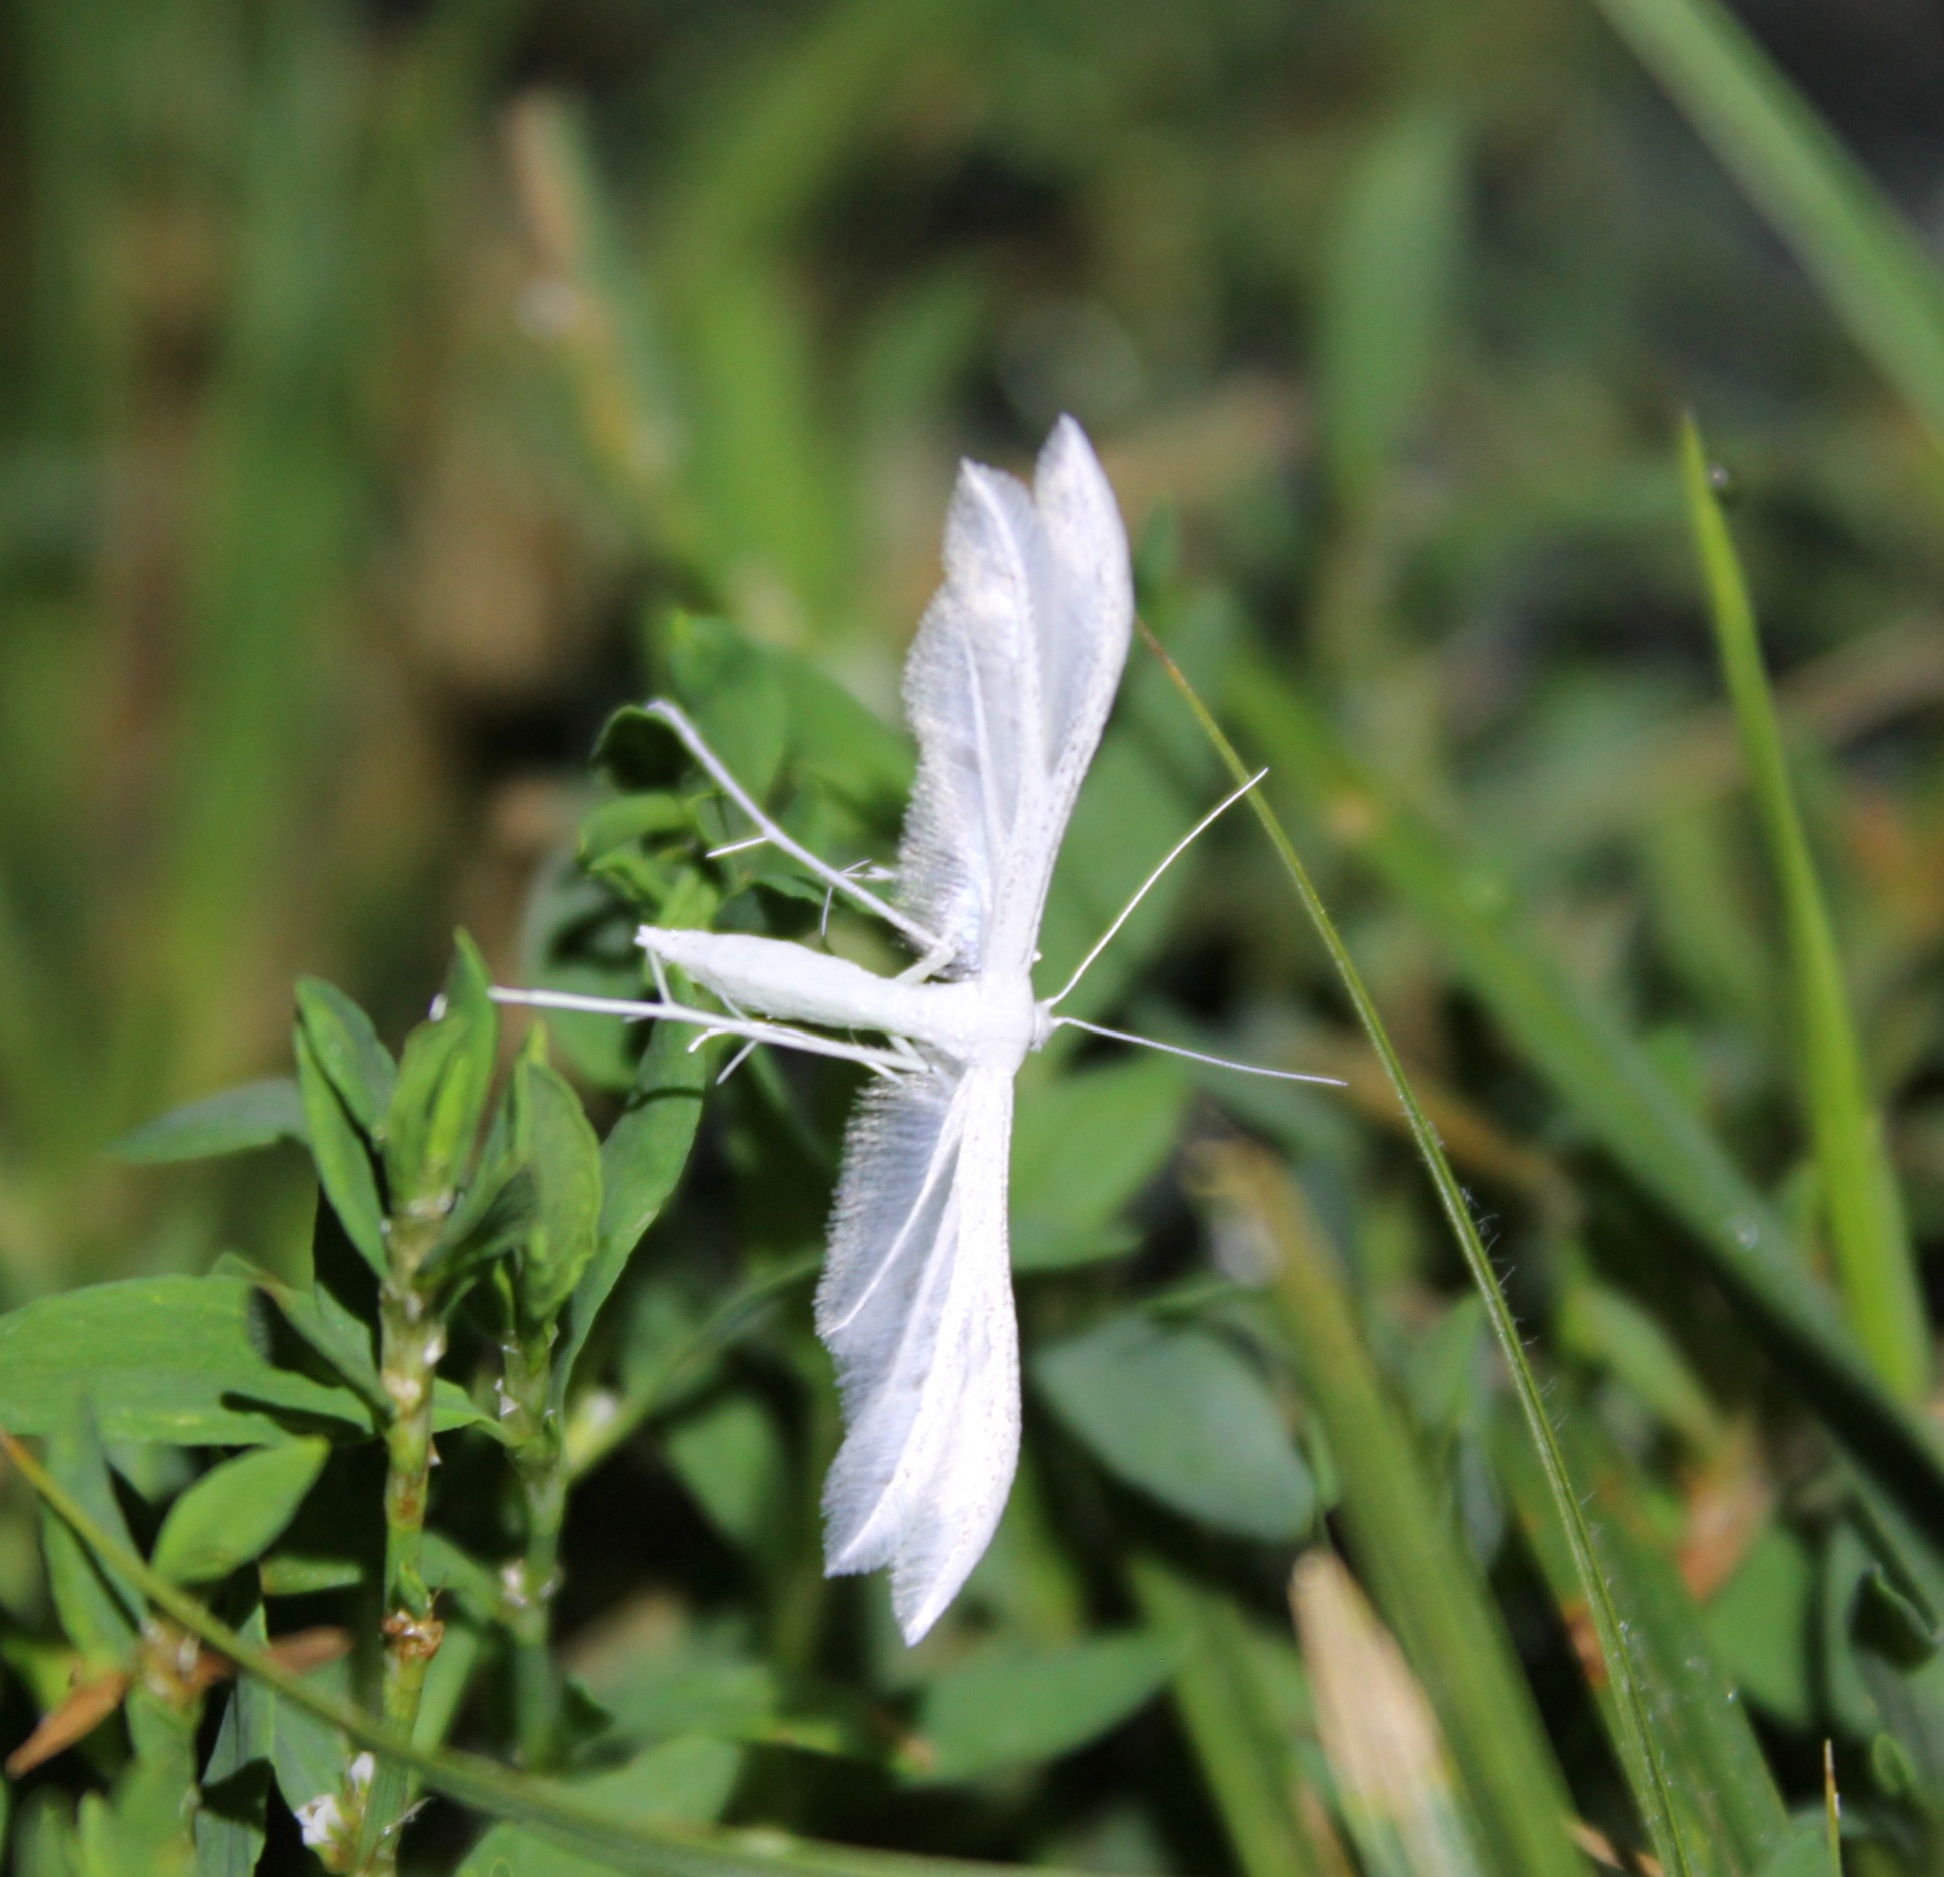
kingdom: Animalia
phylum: Arthropoda
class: Insecta
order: Lepidoptera
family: Pterophoridae
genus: Pterophorus
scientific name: Pterophorus pentadactyla
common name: White plume moth
